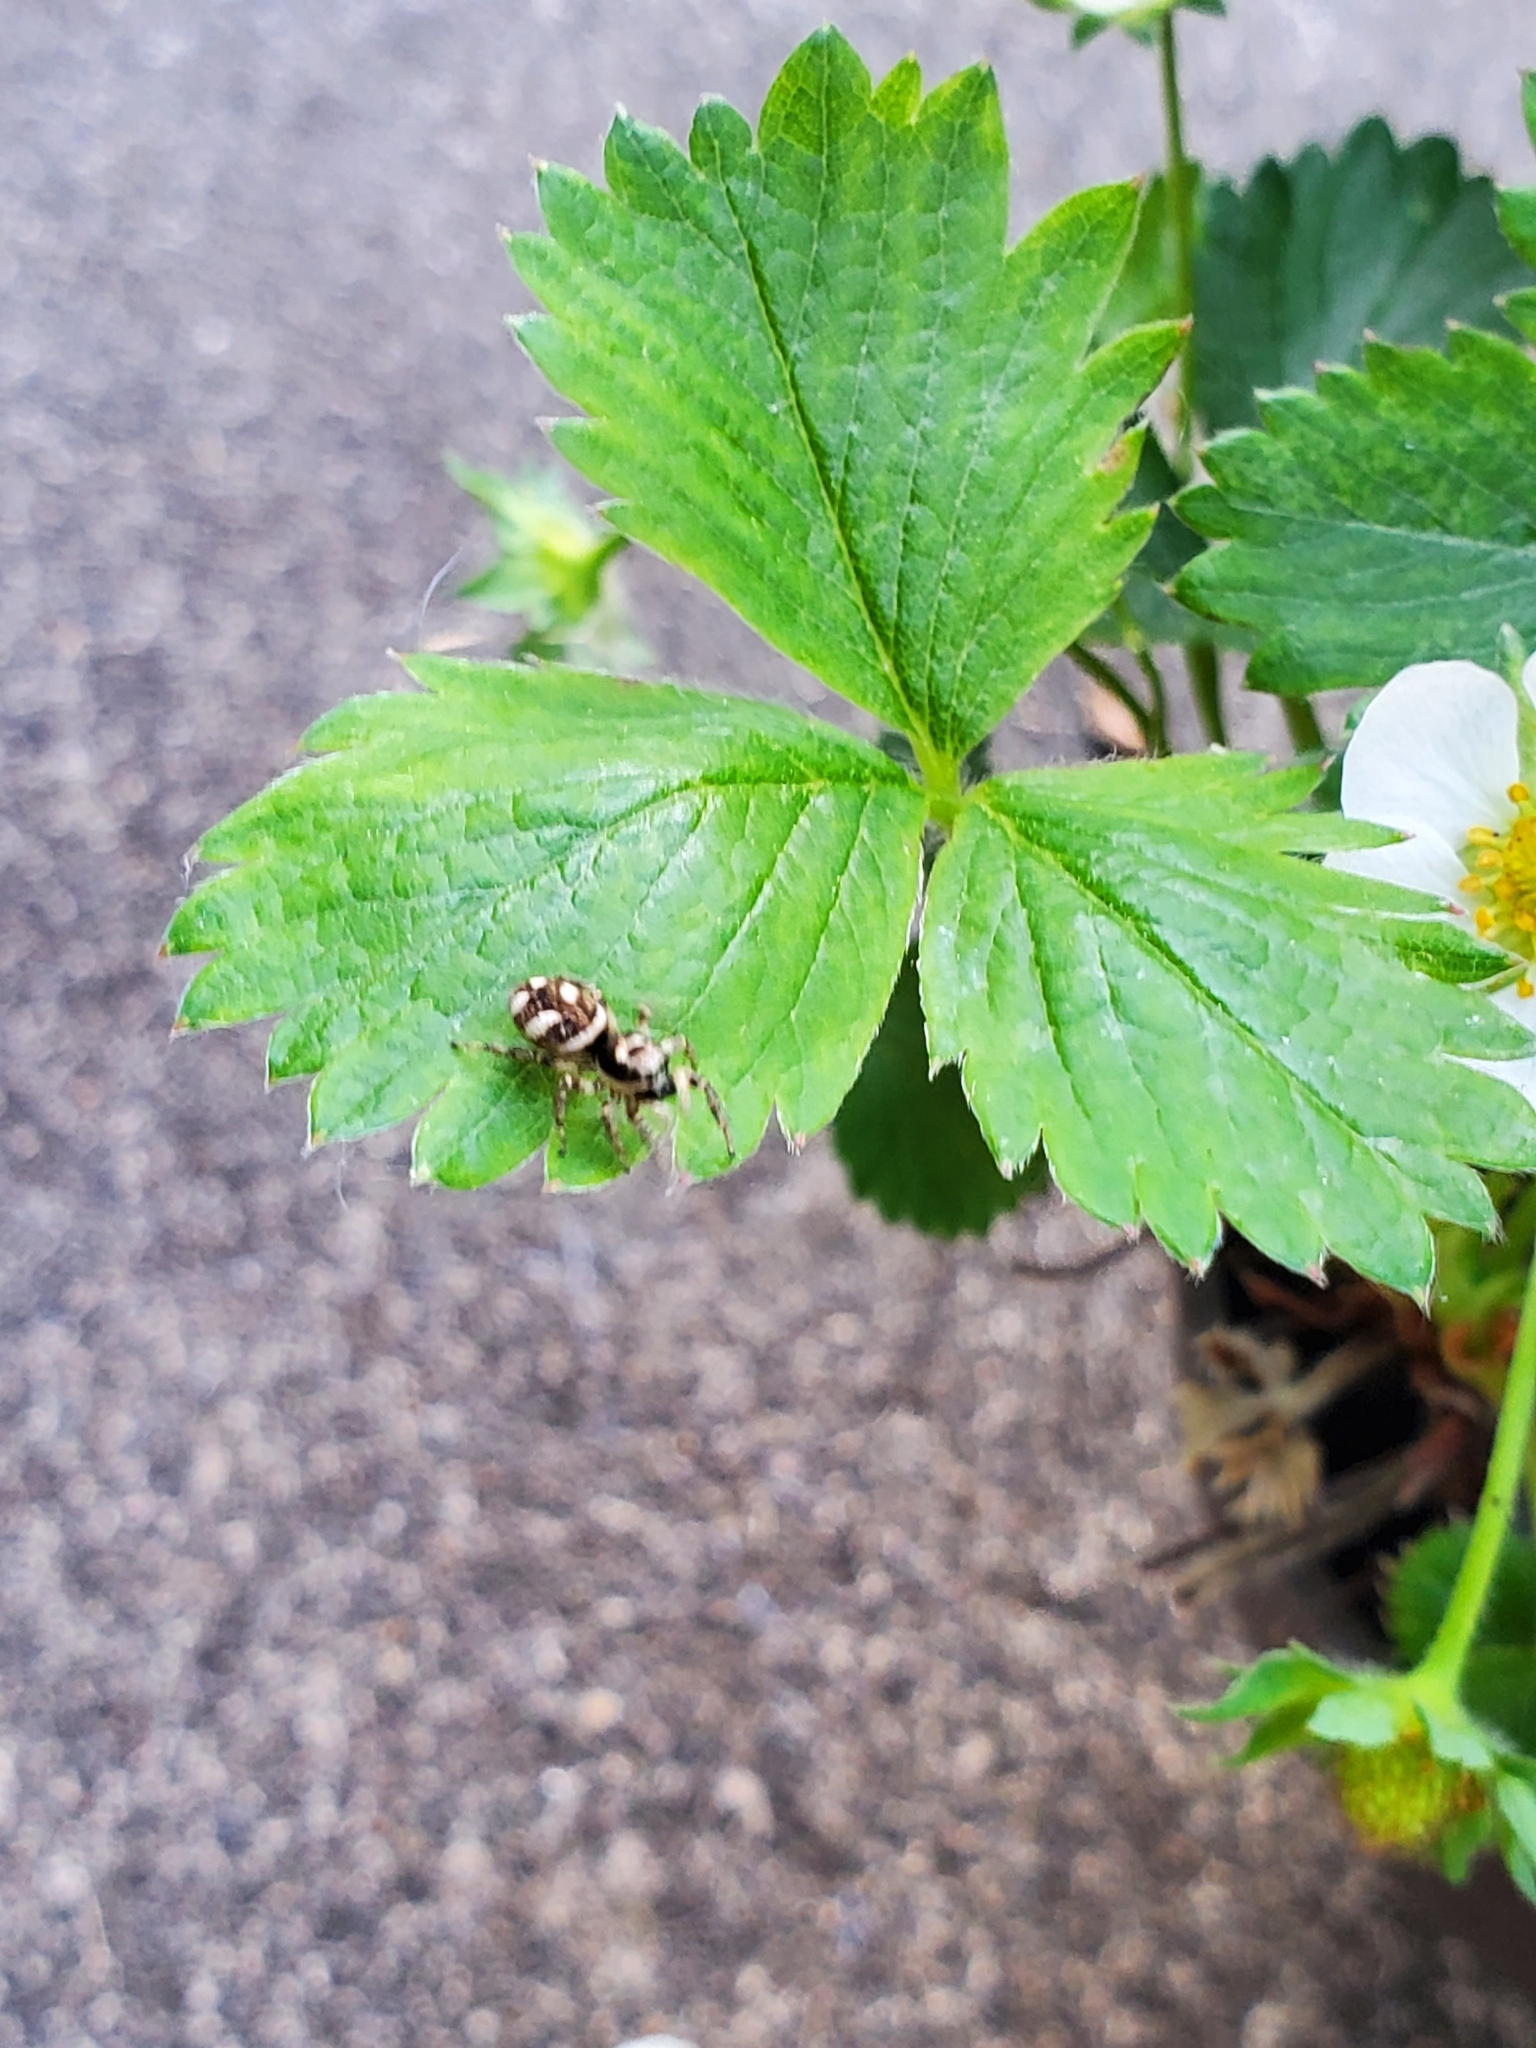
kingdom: Animalia
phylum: Arthropoda
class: Arachnida
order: Araneae
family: Salticidae
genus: Salticus
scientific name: Salticus scenicus
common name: Zebra jumper
